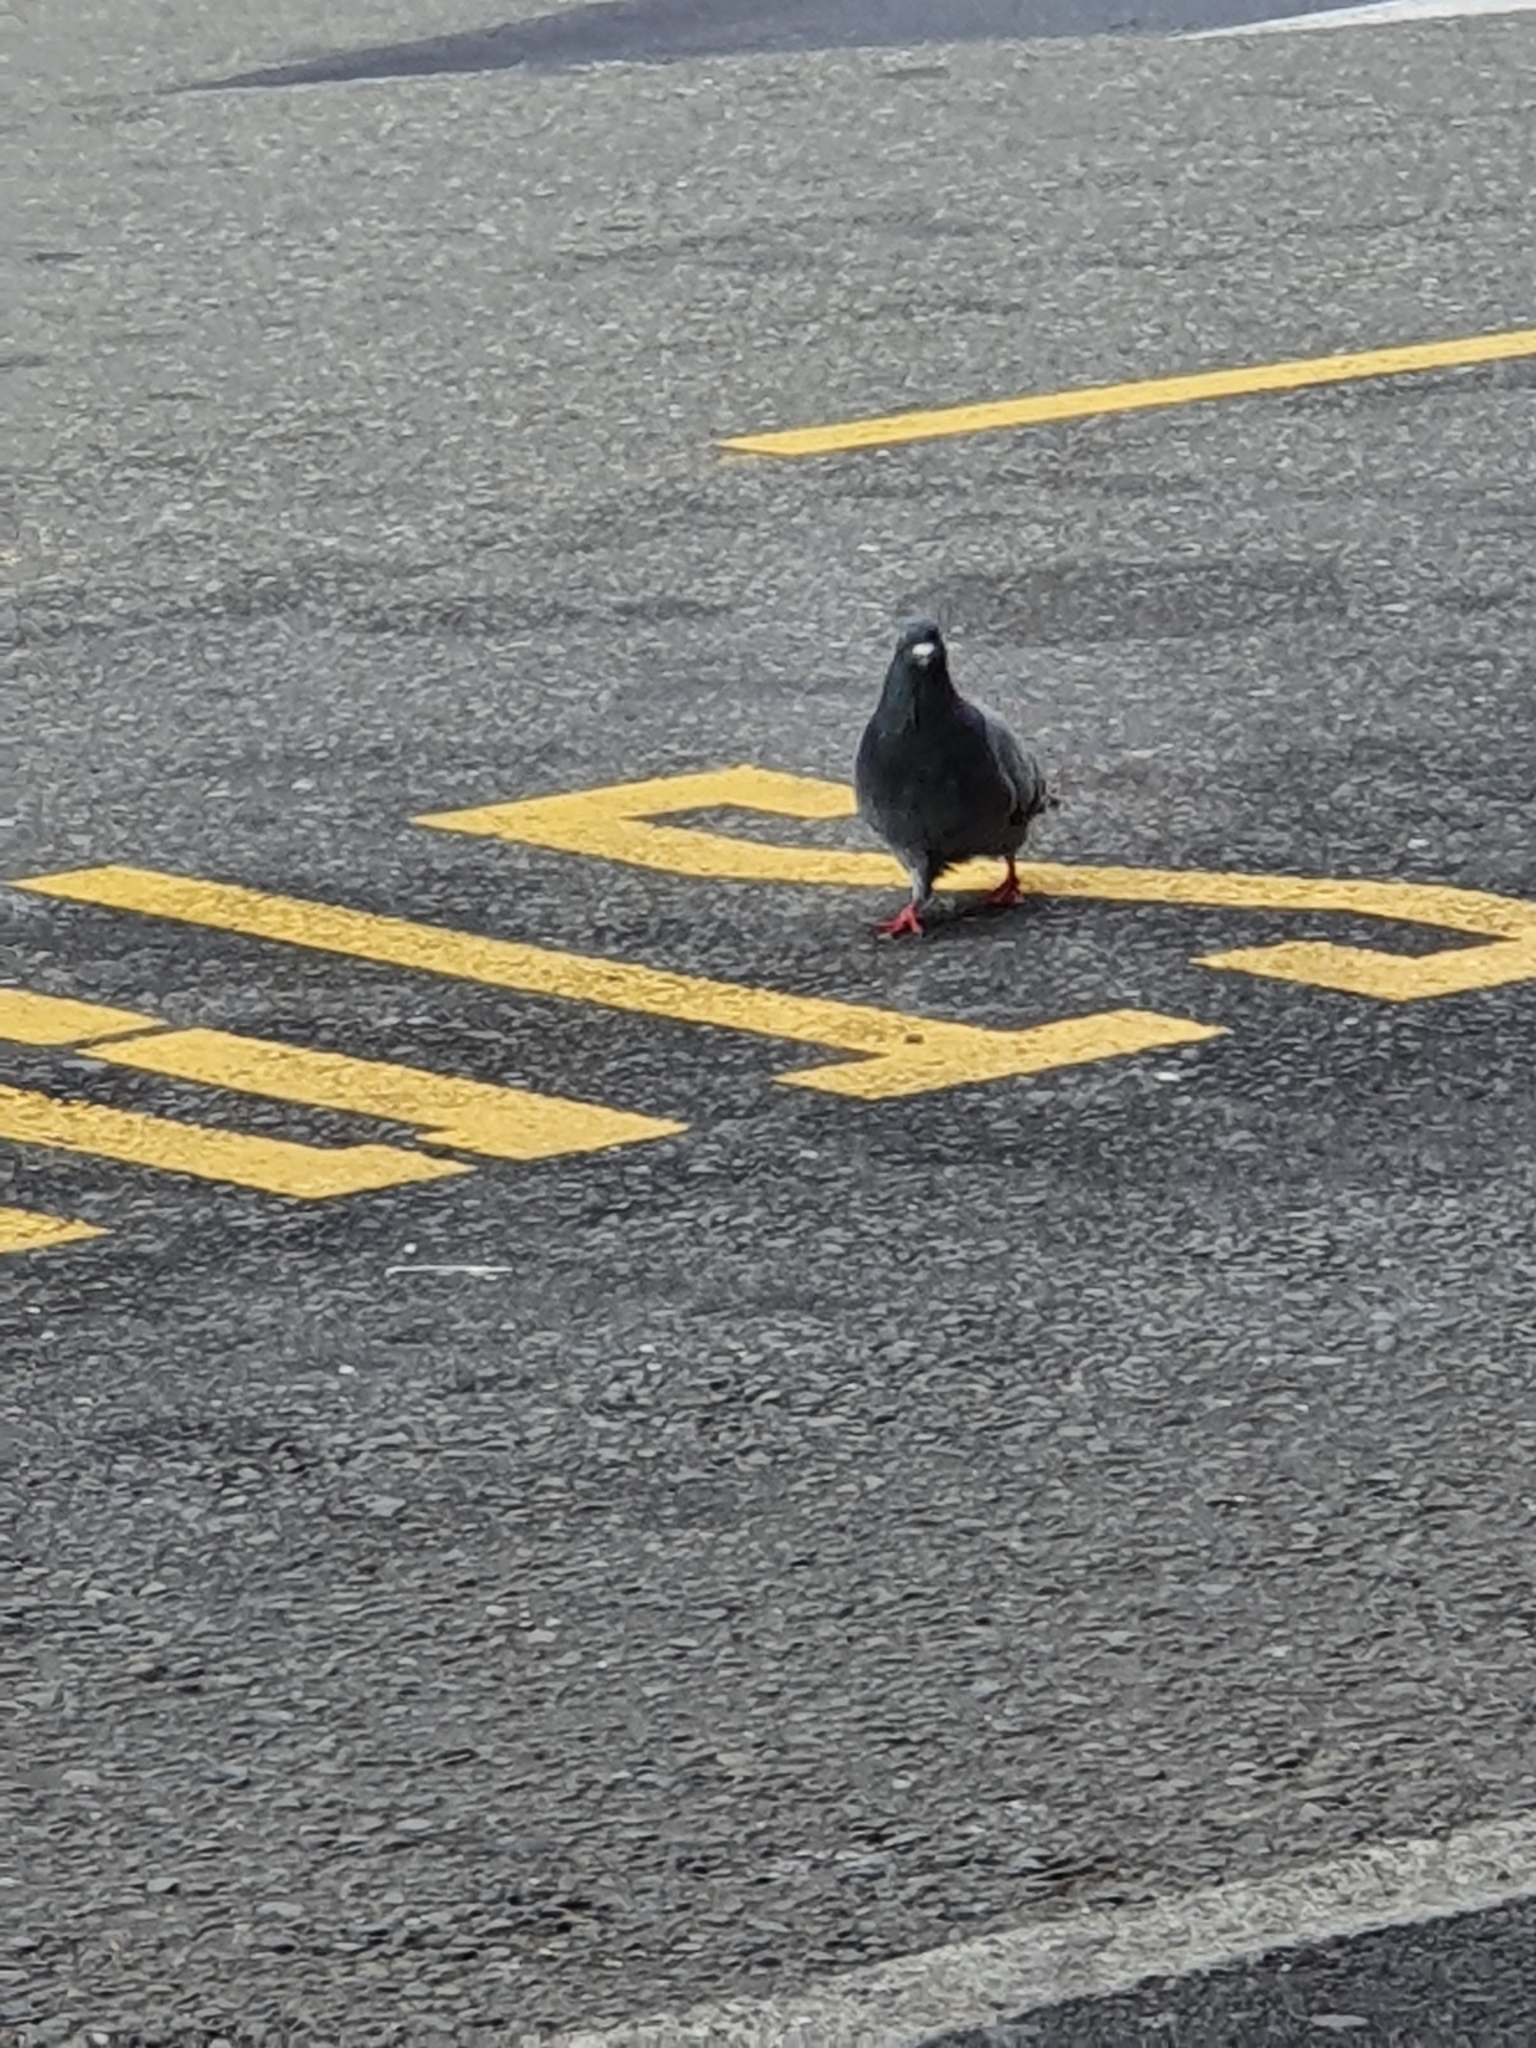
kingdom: Animalia
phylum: Chordata
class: Aves
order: Columbiformes
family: Columbidae
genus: Columba
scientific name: Columba livia
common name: Rock pigeon
